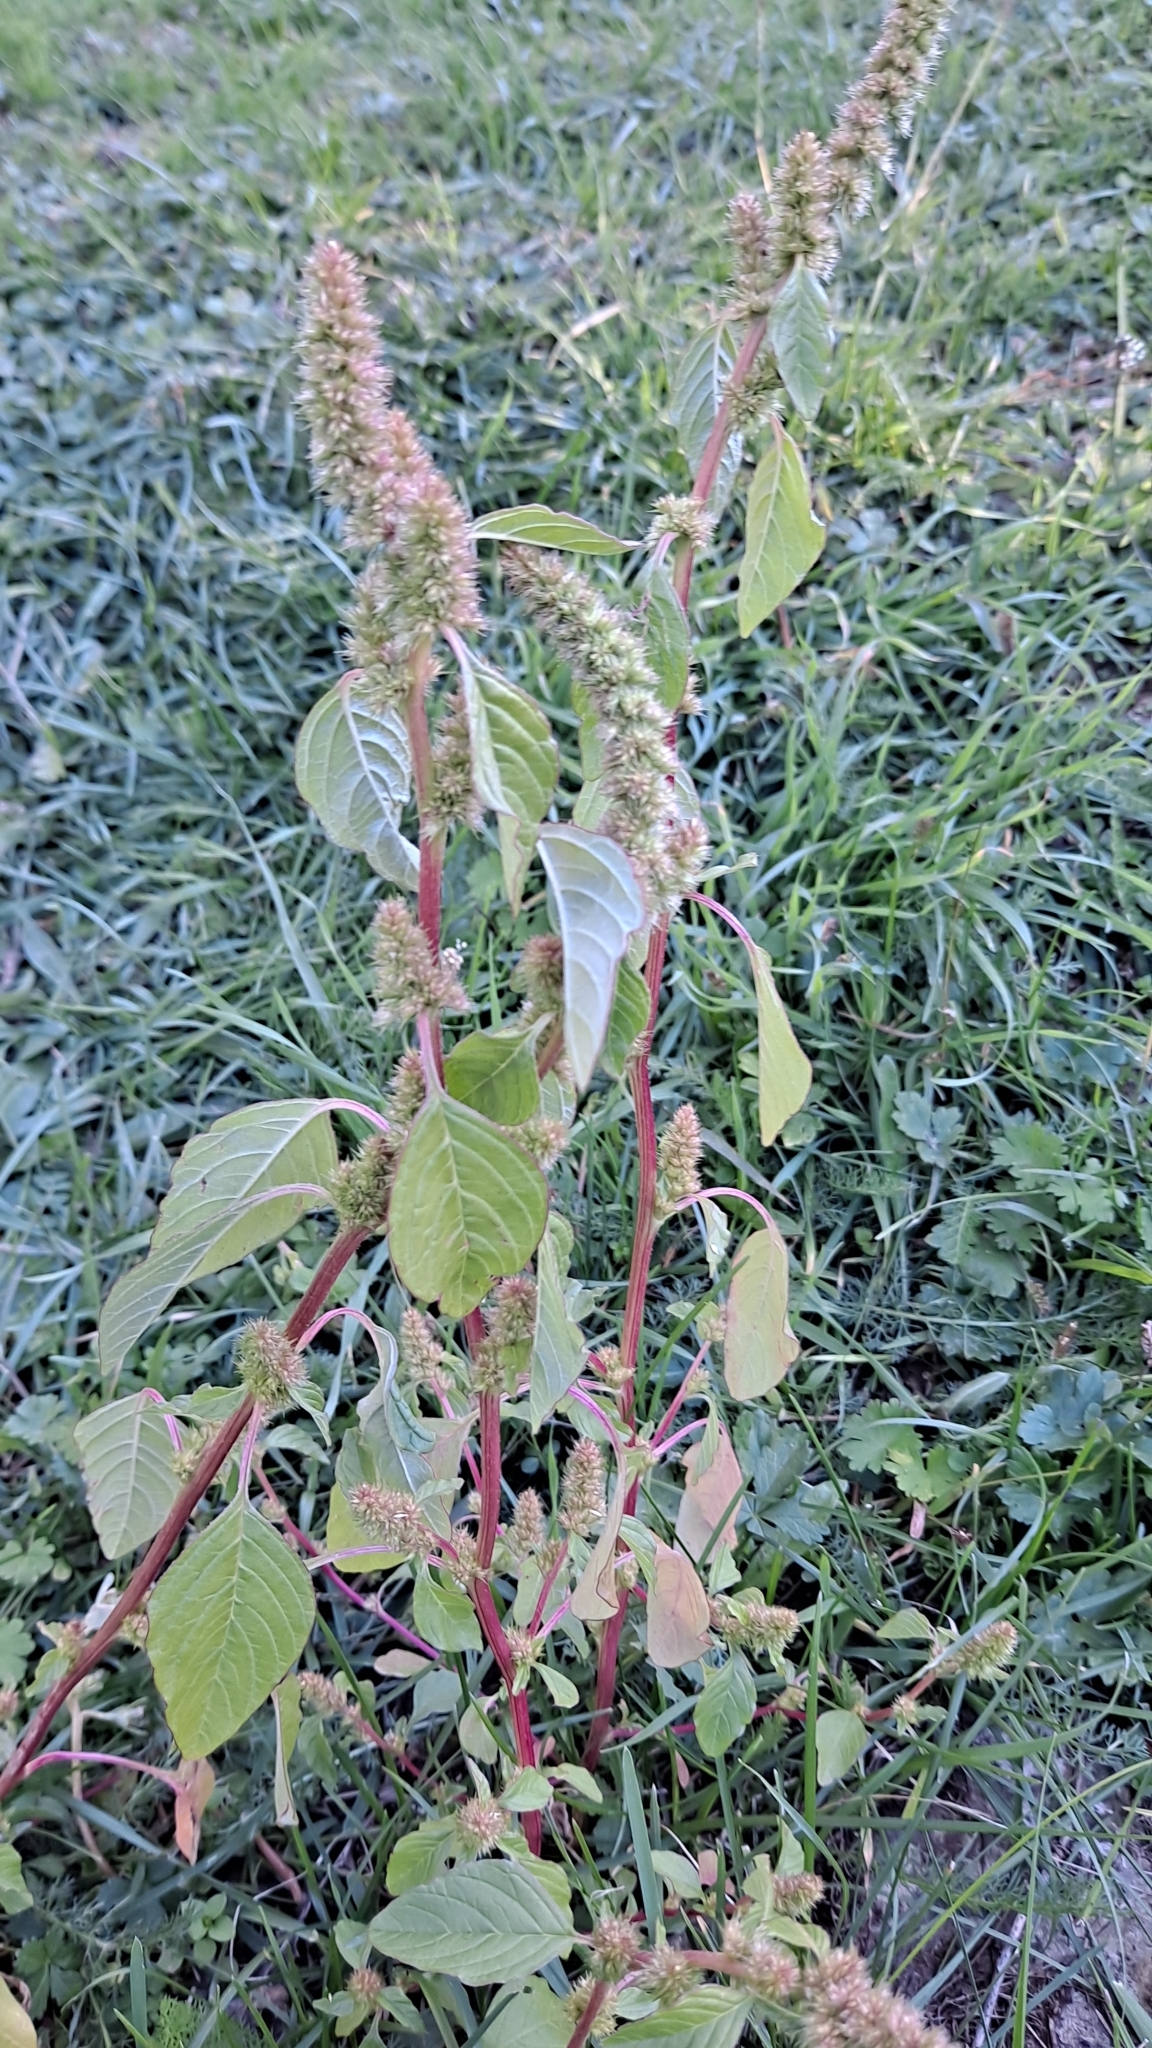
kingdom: Plantae
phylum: Tracheophyta
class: Magnoliopsida
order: Caryophyllales
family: Amaranthaceae
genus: Amaranthus
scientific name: Amaranthus retroflexus
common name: Redroot amaranth
